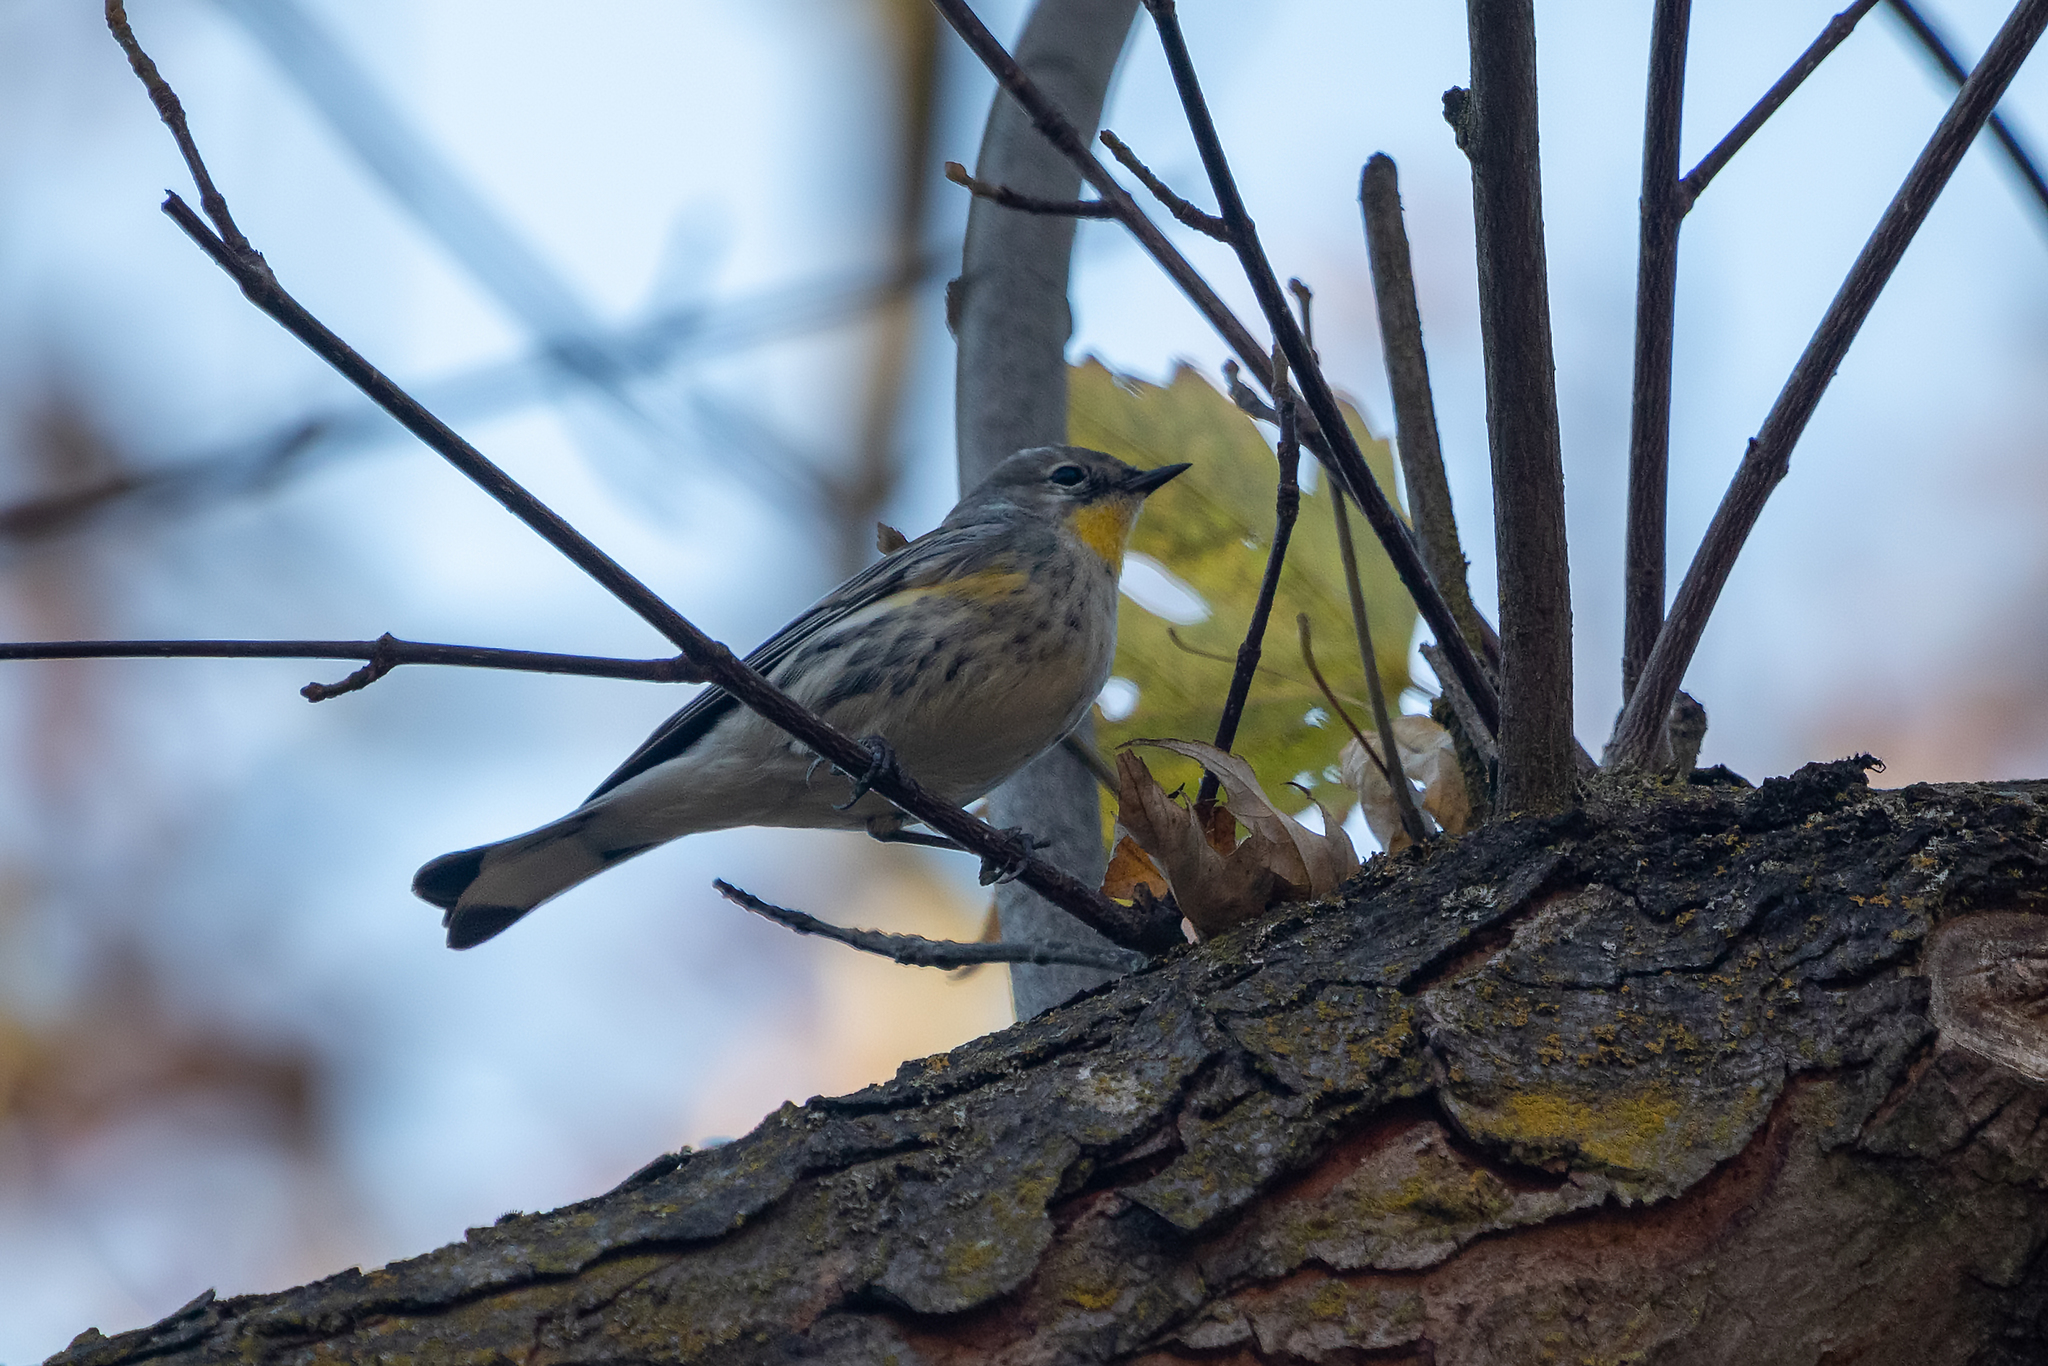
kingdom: Animalia
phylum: Chordata
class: Aves
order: Passeriformes
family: Parulidae
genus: Setophaga
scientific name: Setophaga auduboni
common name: Audubon's warbler
